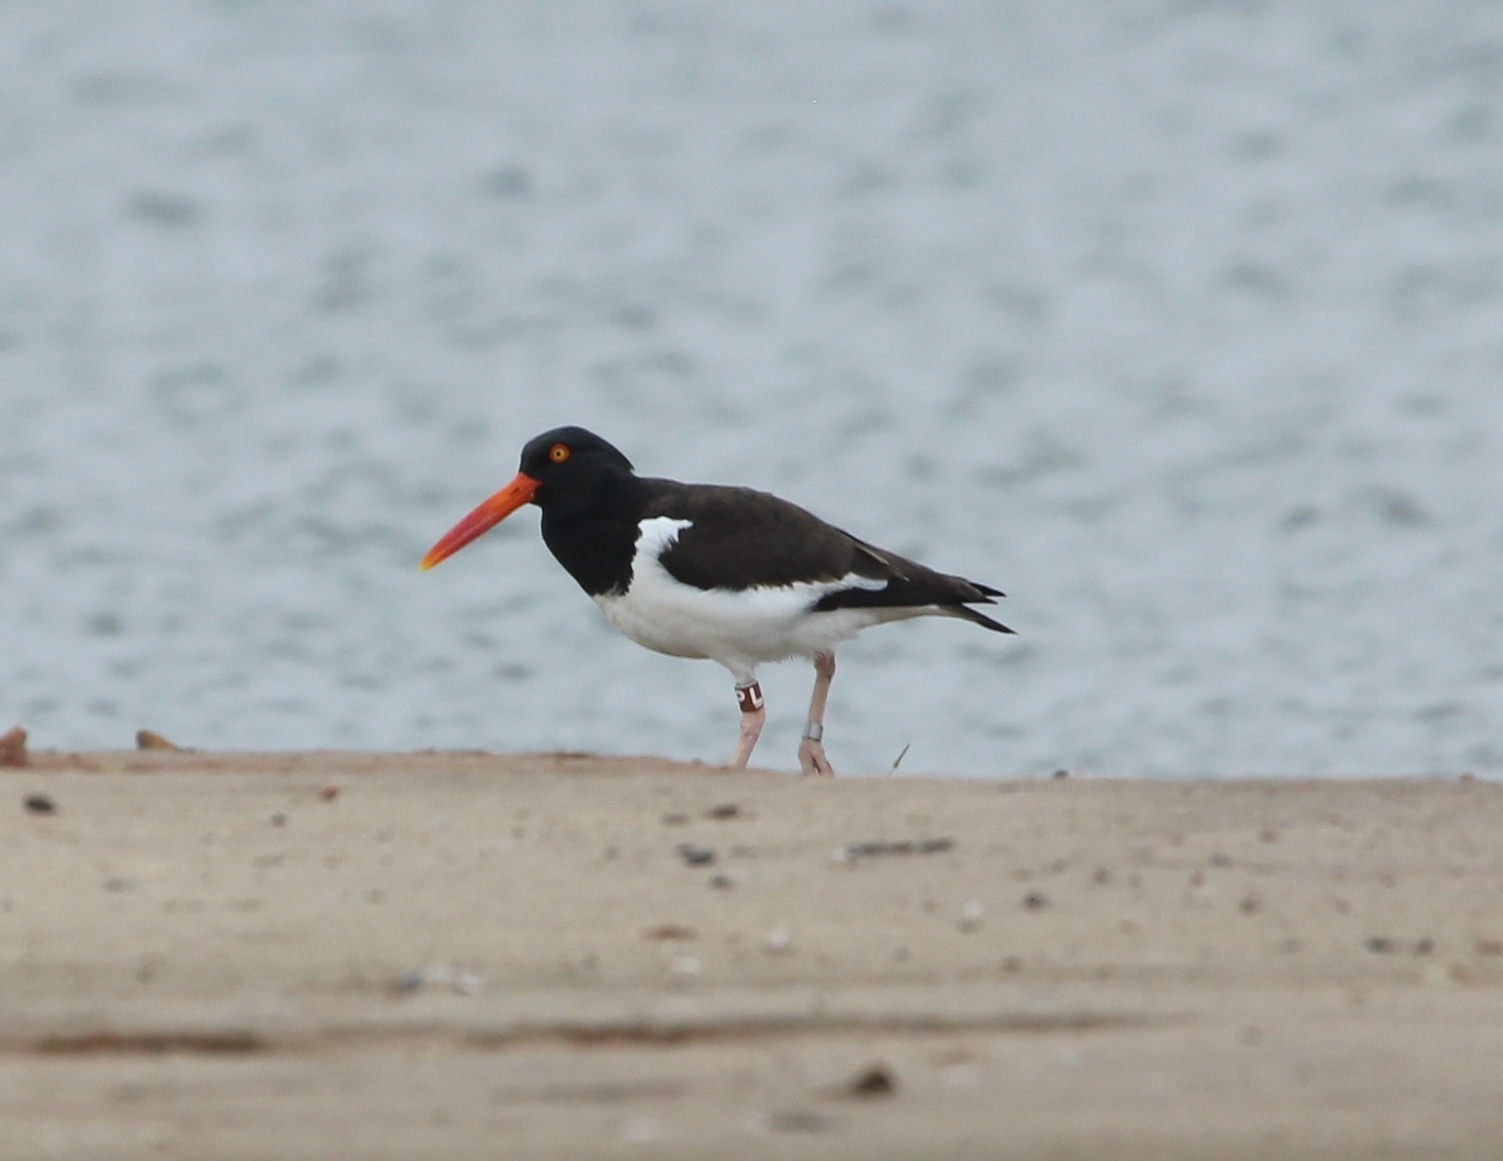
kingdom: Animalia
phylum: Chordata
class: Aves
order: Charadriiformes
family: Haematopodidae
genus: Haematopus
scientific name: Haematopus palliatus
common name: American oystercatcher
